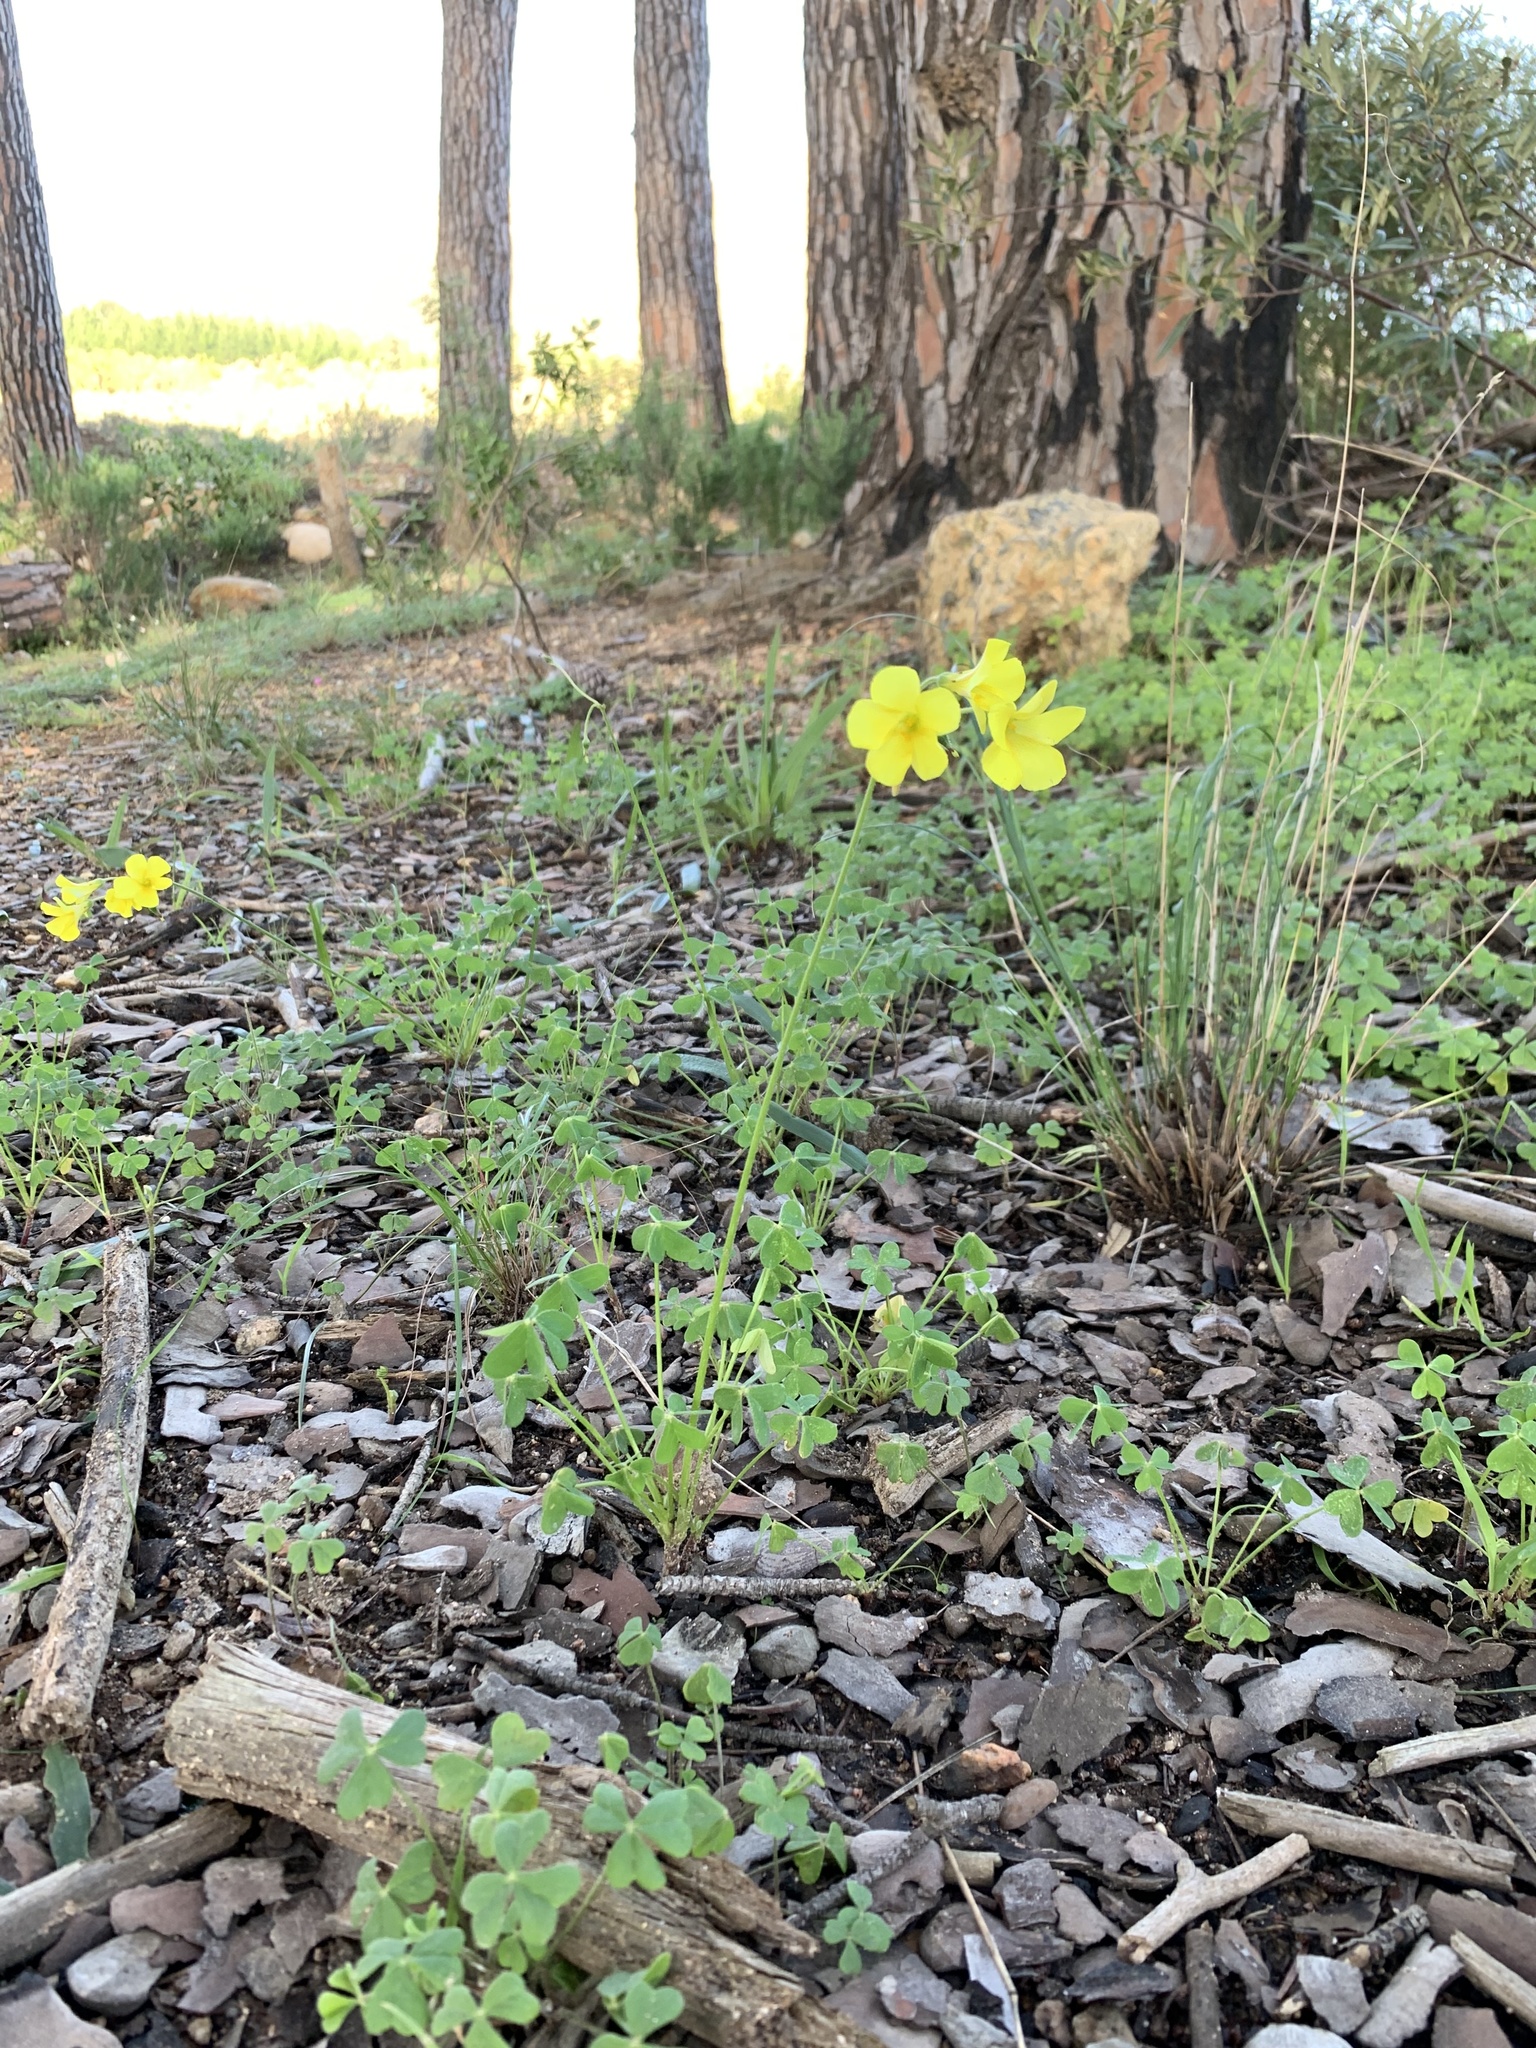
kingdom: Plantae
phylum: Tracheophyta
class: Magnoliopsida
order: Oxalidales
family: Oxalidaceae
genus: Oxalis
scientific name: Oxalis pes-caprae
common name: Bermuda-buttercup
